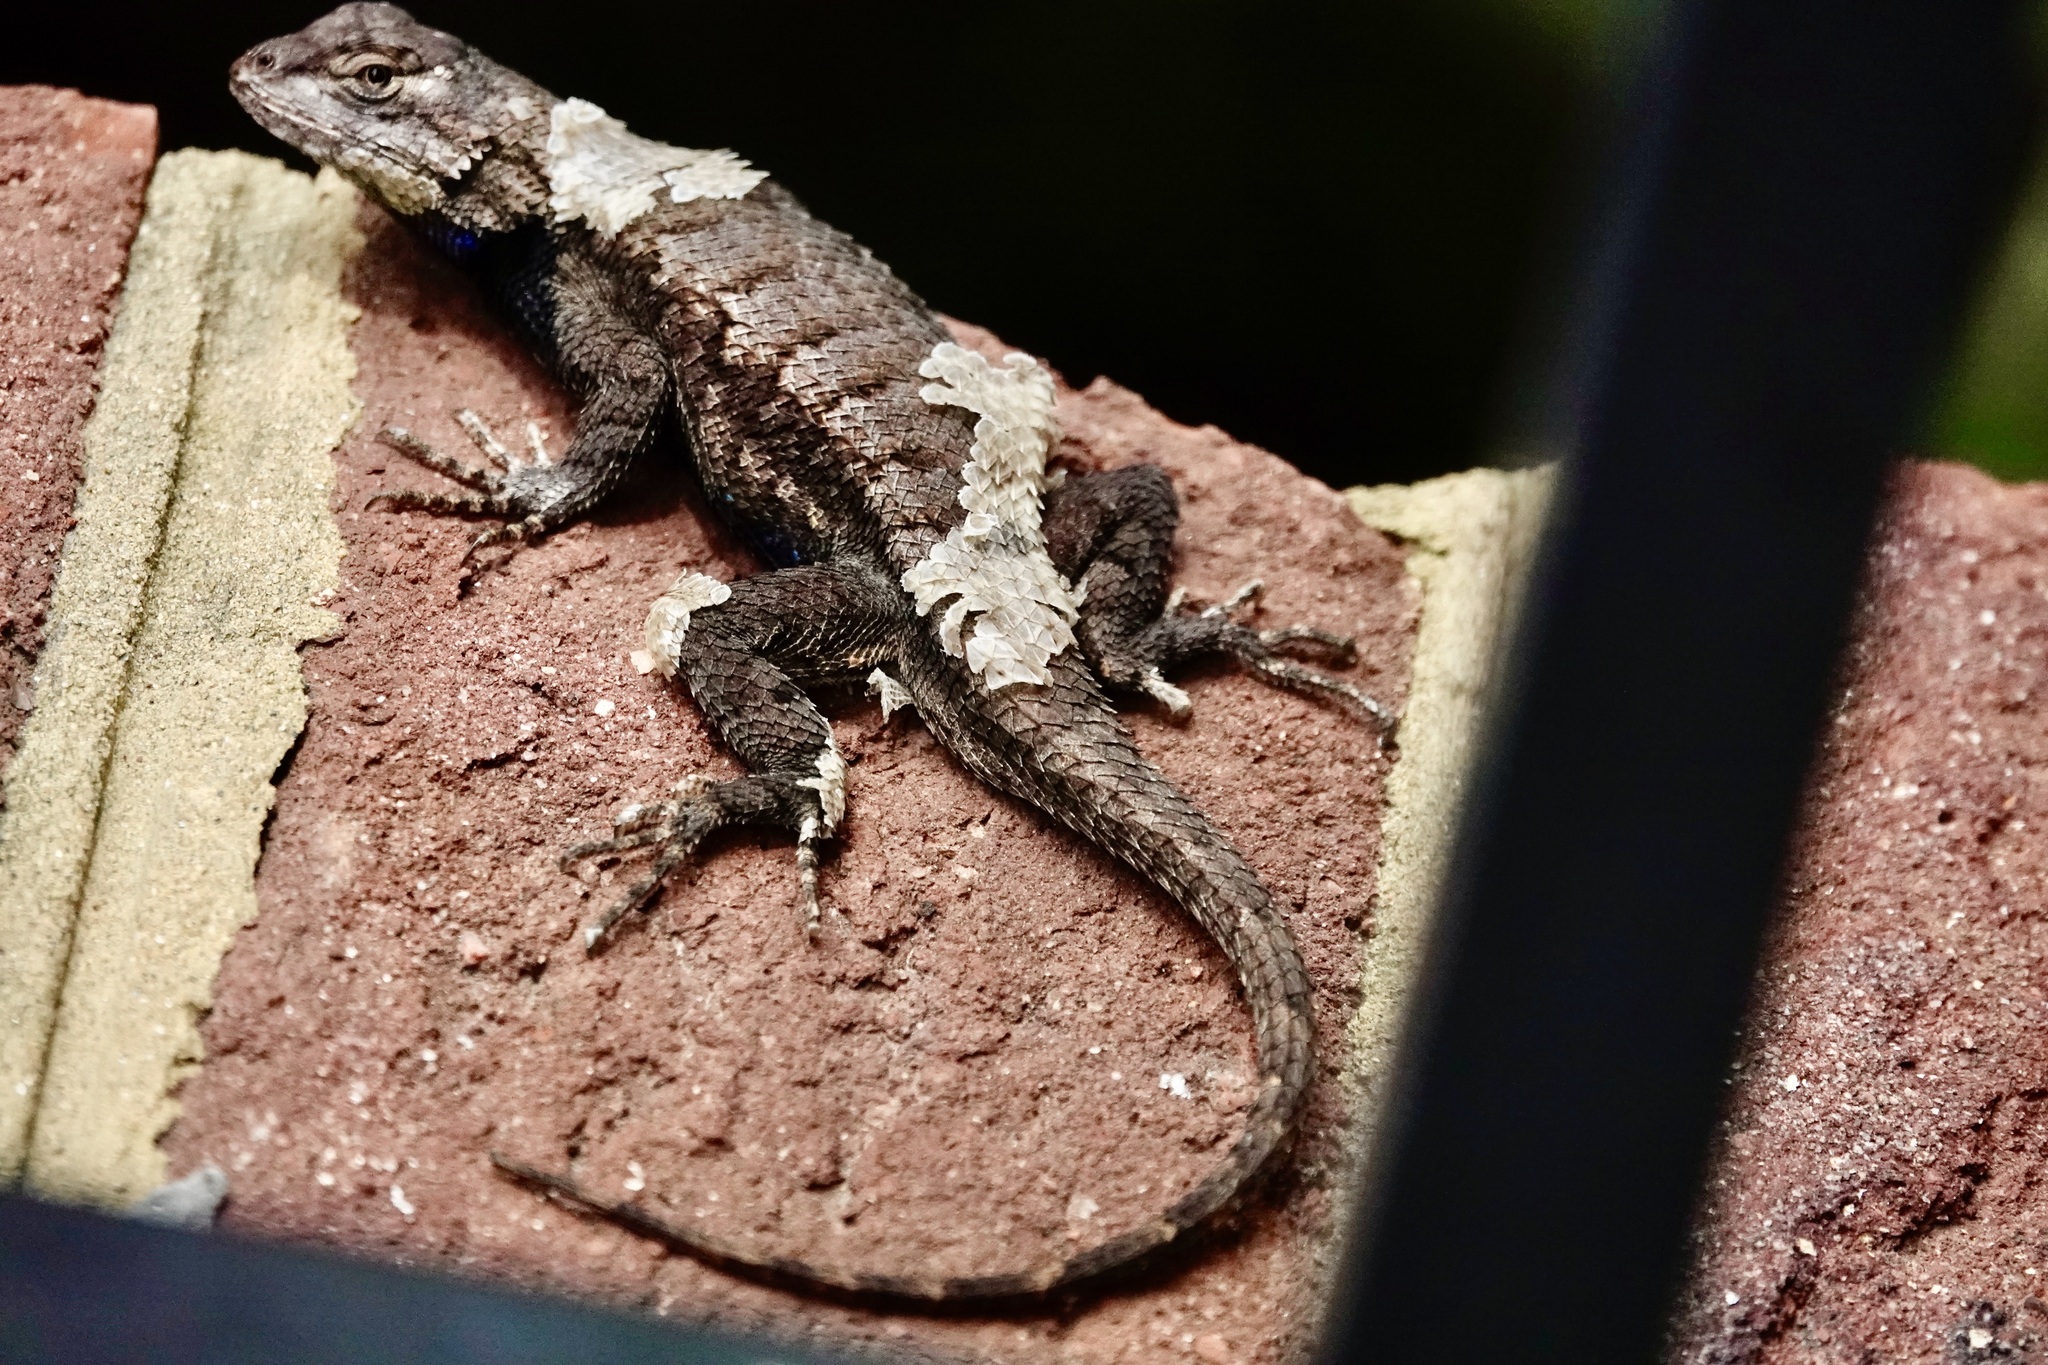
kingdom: Animalia
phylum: Chordata
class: Squamata
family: Phrynosomatidae
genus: Sceloporus
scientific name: Sceloporus undulatus
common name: Eastern fence lizard
